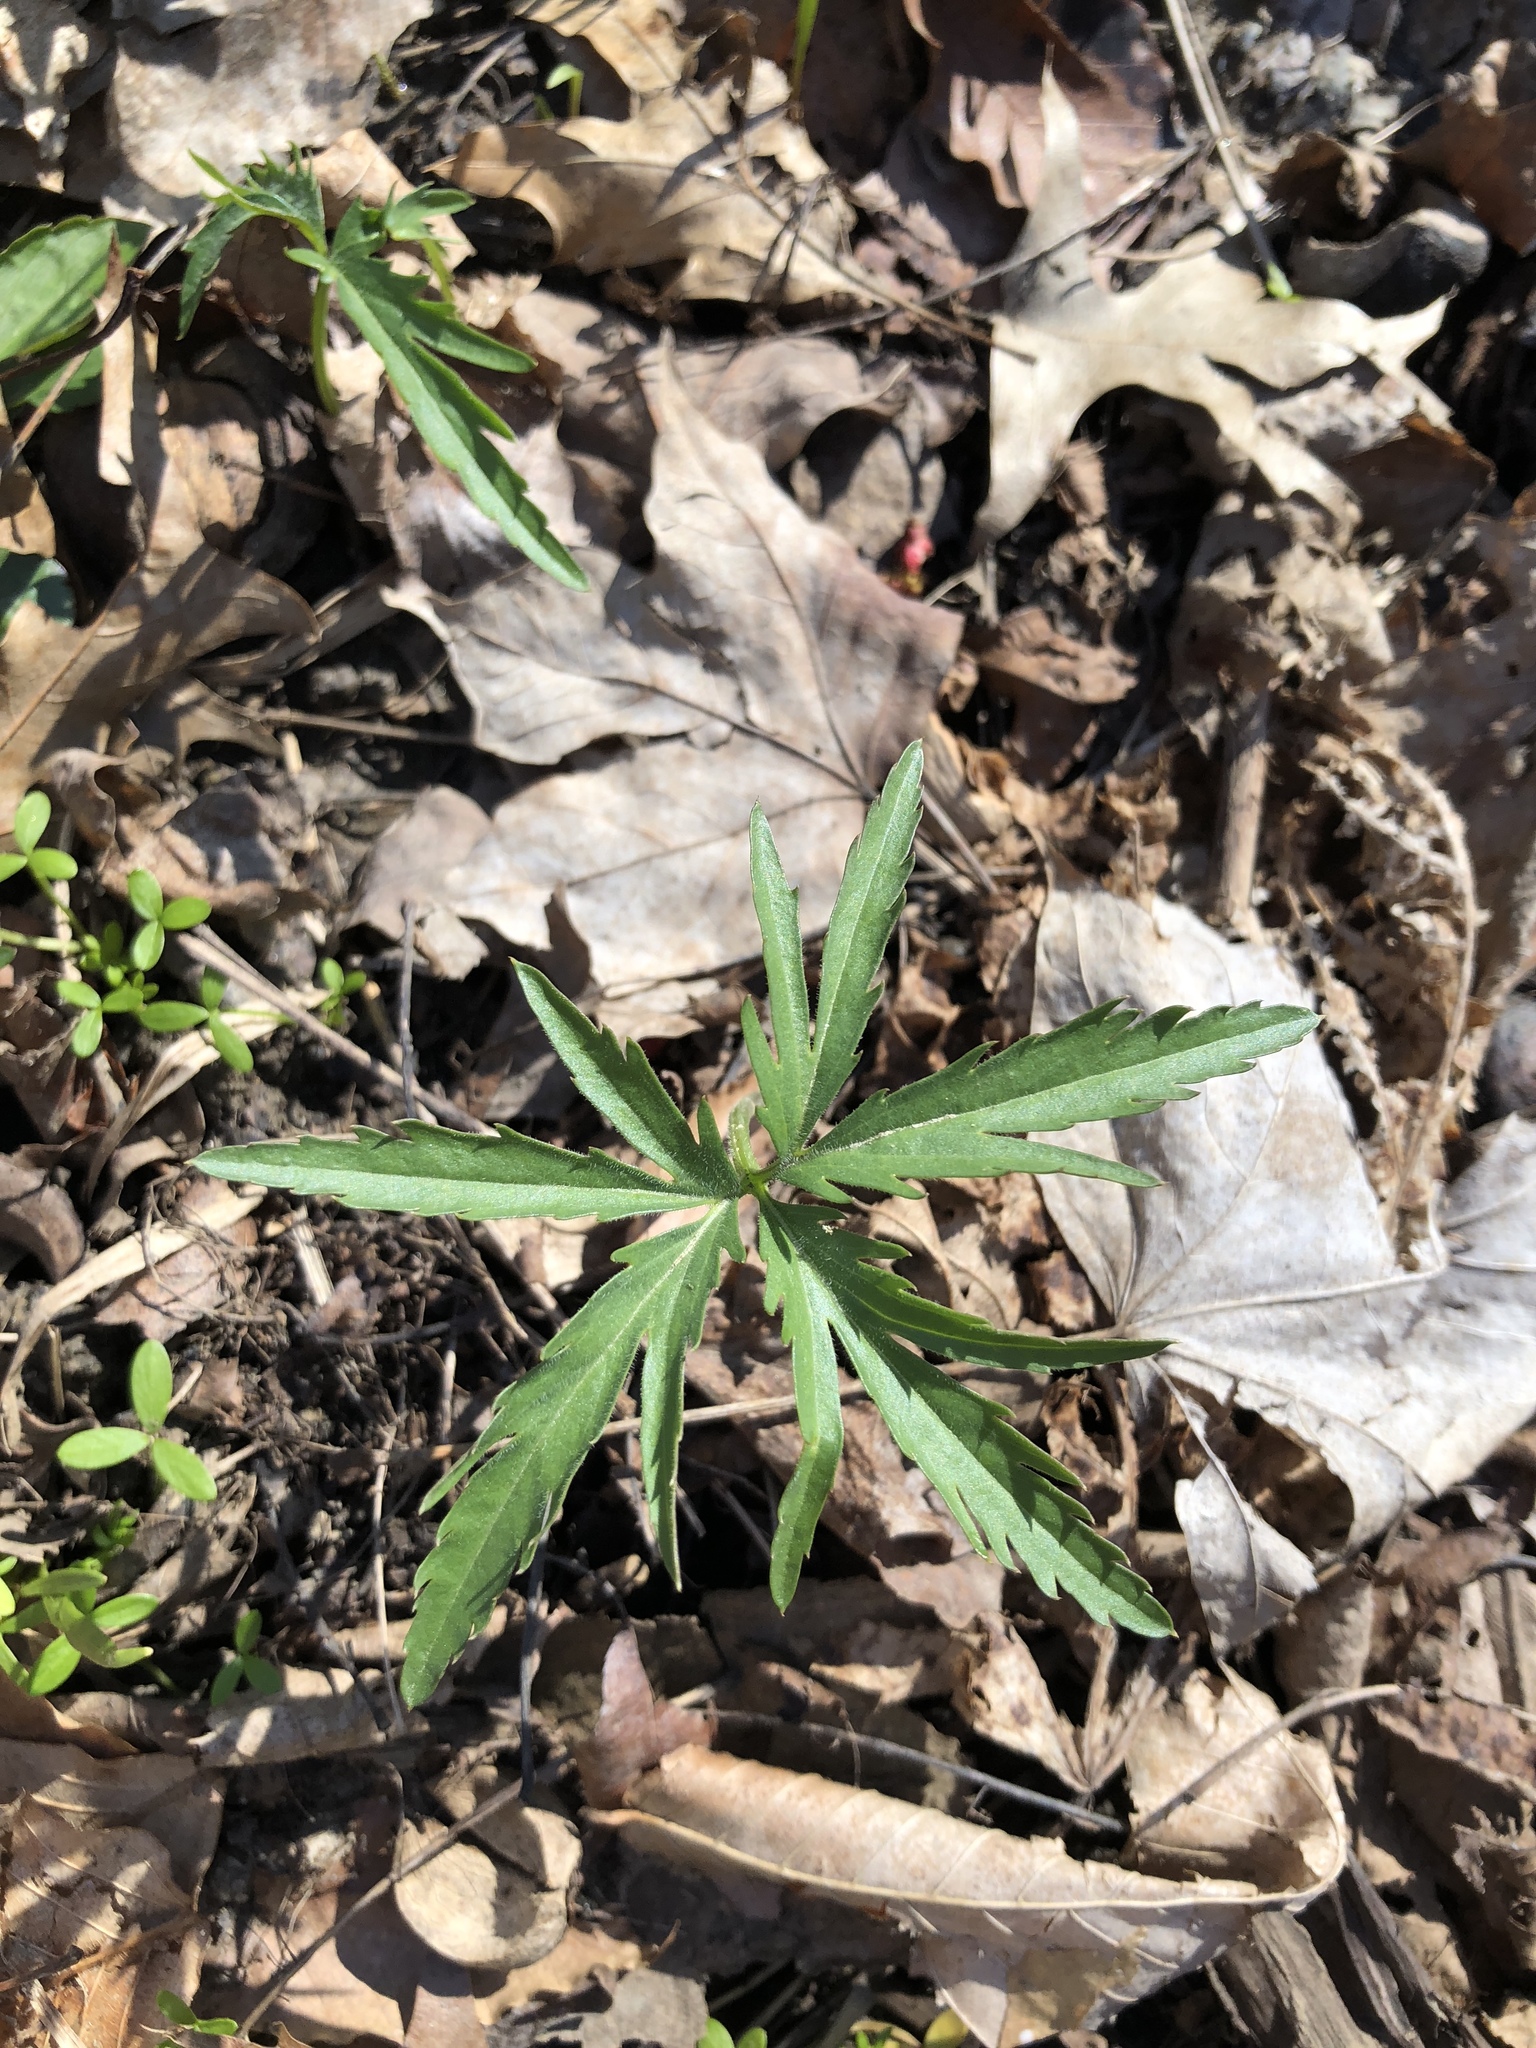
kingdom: Plantae
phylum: Tracheophyta
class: Magnoliopsida
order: Brassicales
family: Brassicaceae
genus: Cardamine
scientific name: Cardamine concatenata
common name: Cut-leaf toothcup
